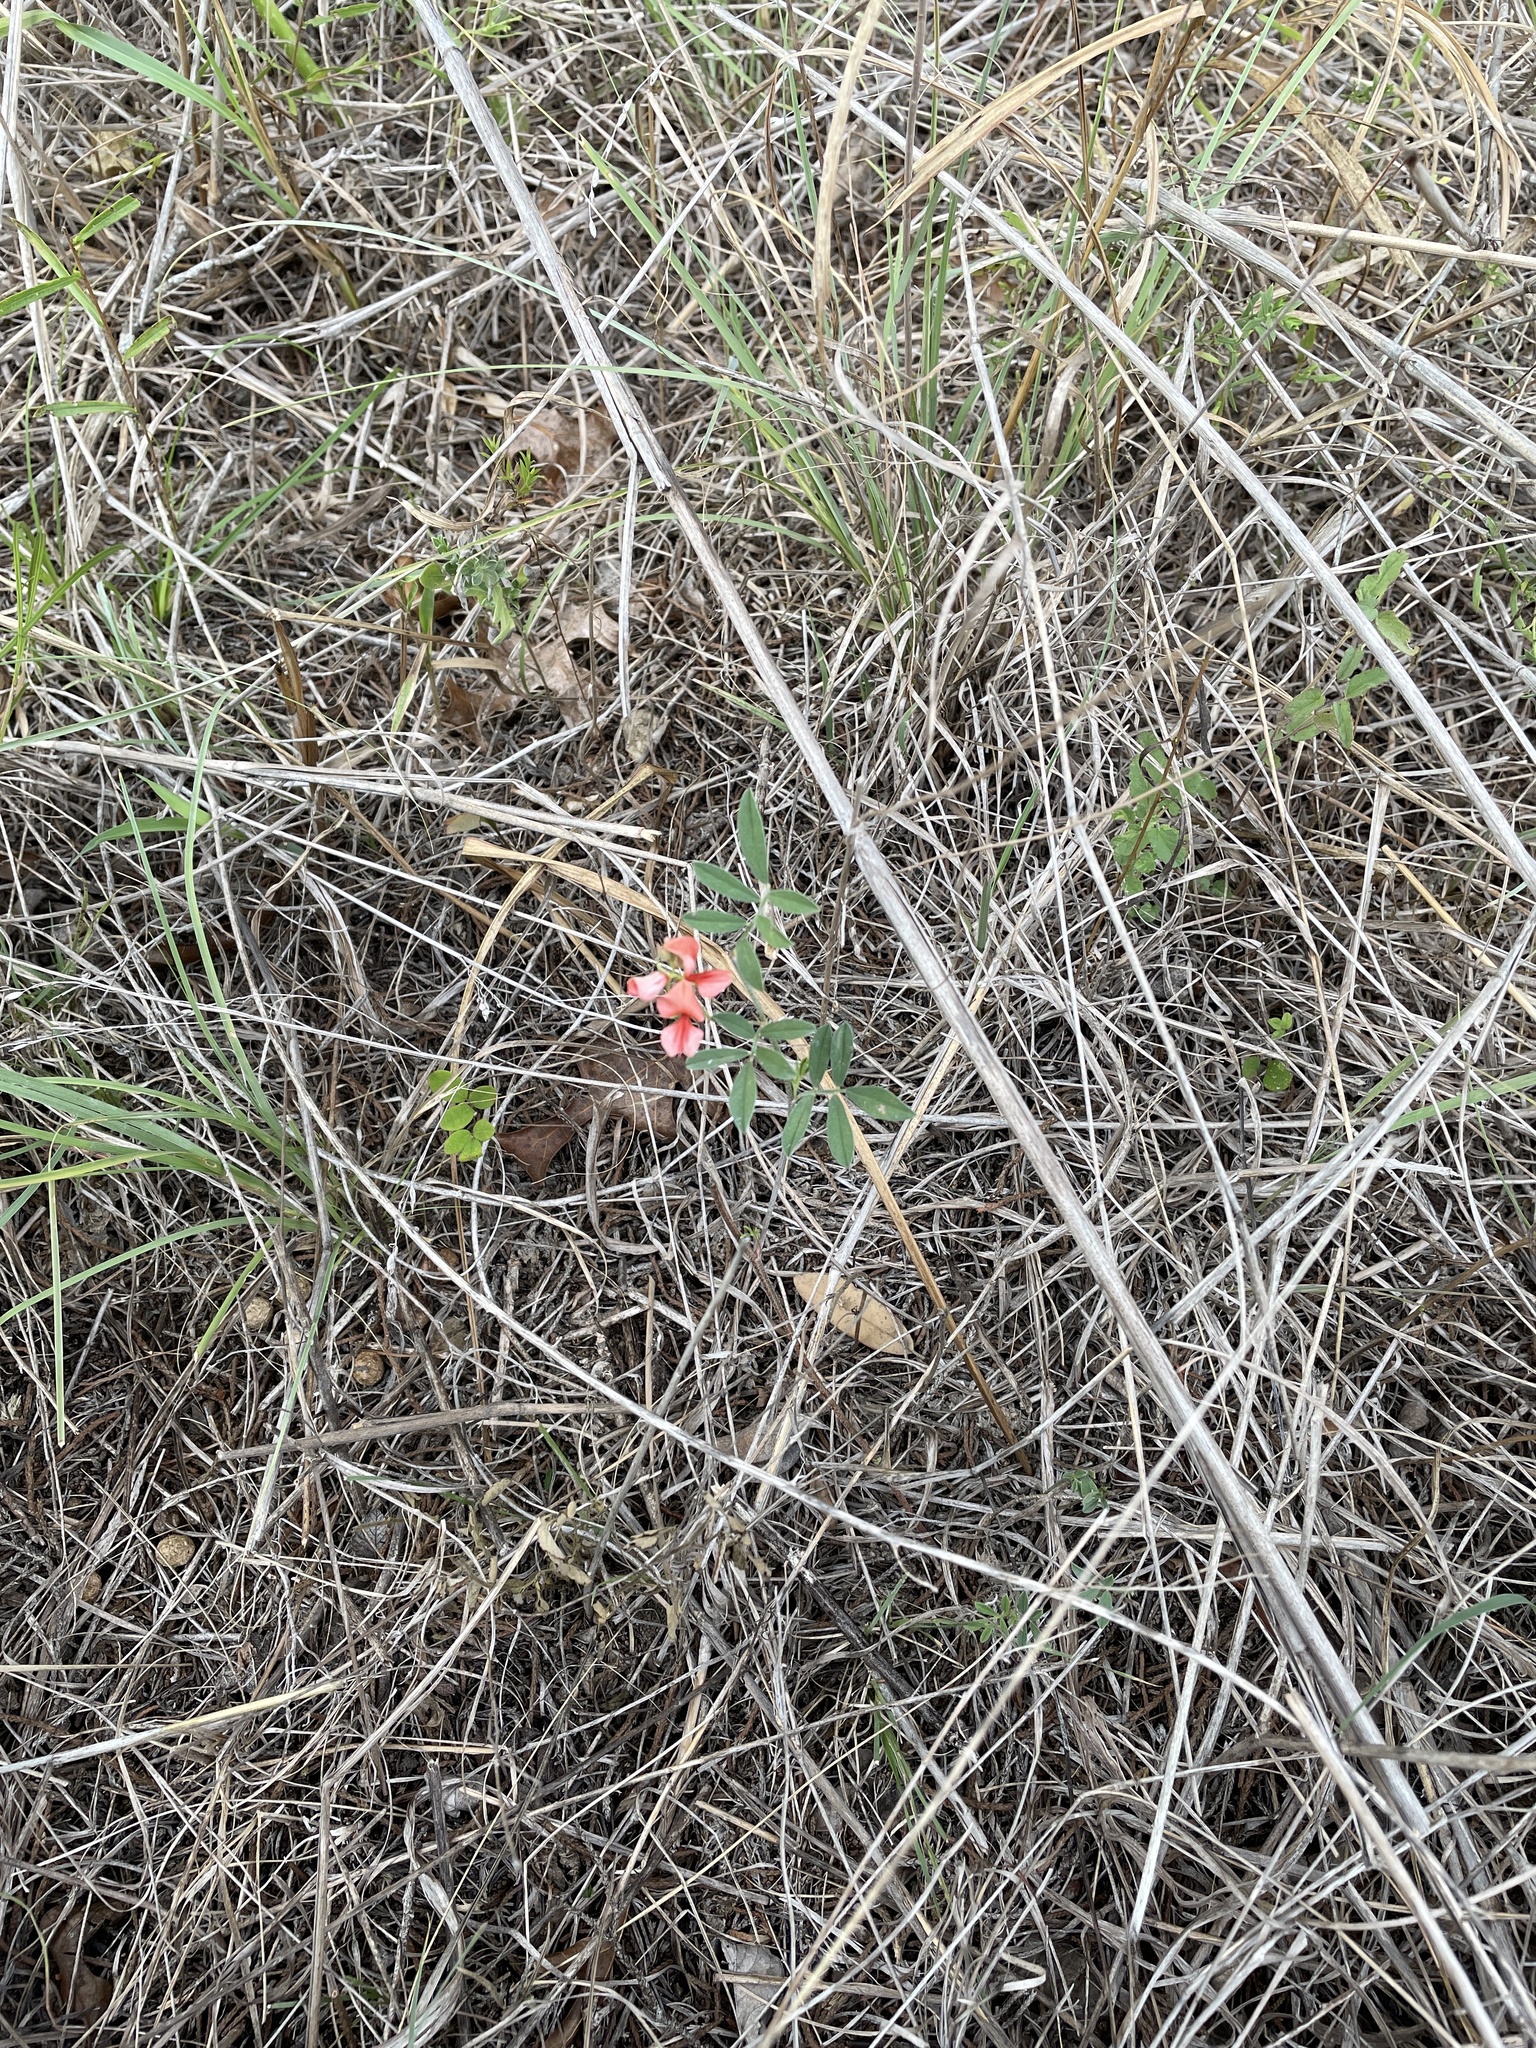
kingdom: Plantae
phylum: Tracheophyta
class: Magnoliopsida
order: Fabales
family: Fabaceae
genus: Indigofera
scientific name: Indigofera miniata
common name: Coast indigo
